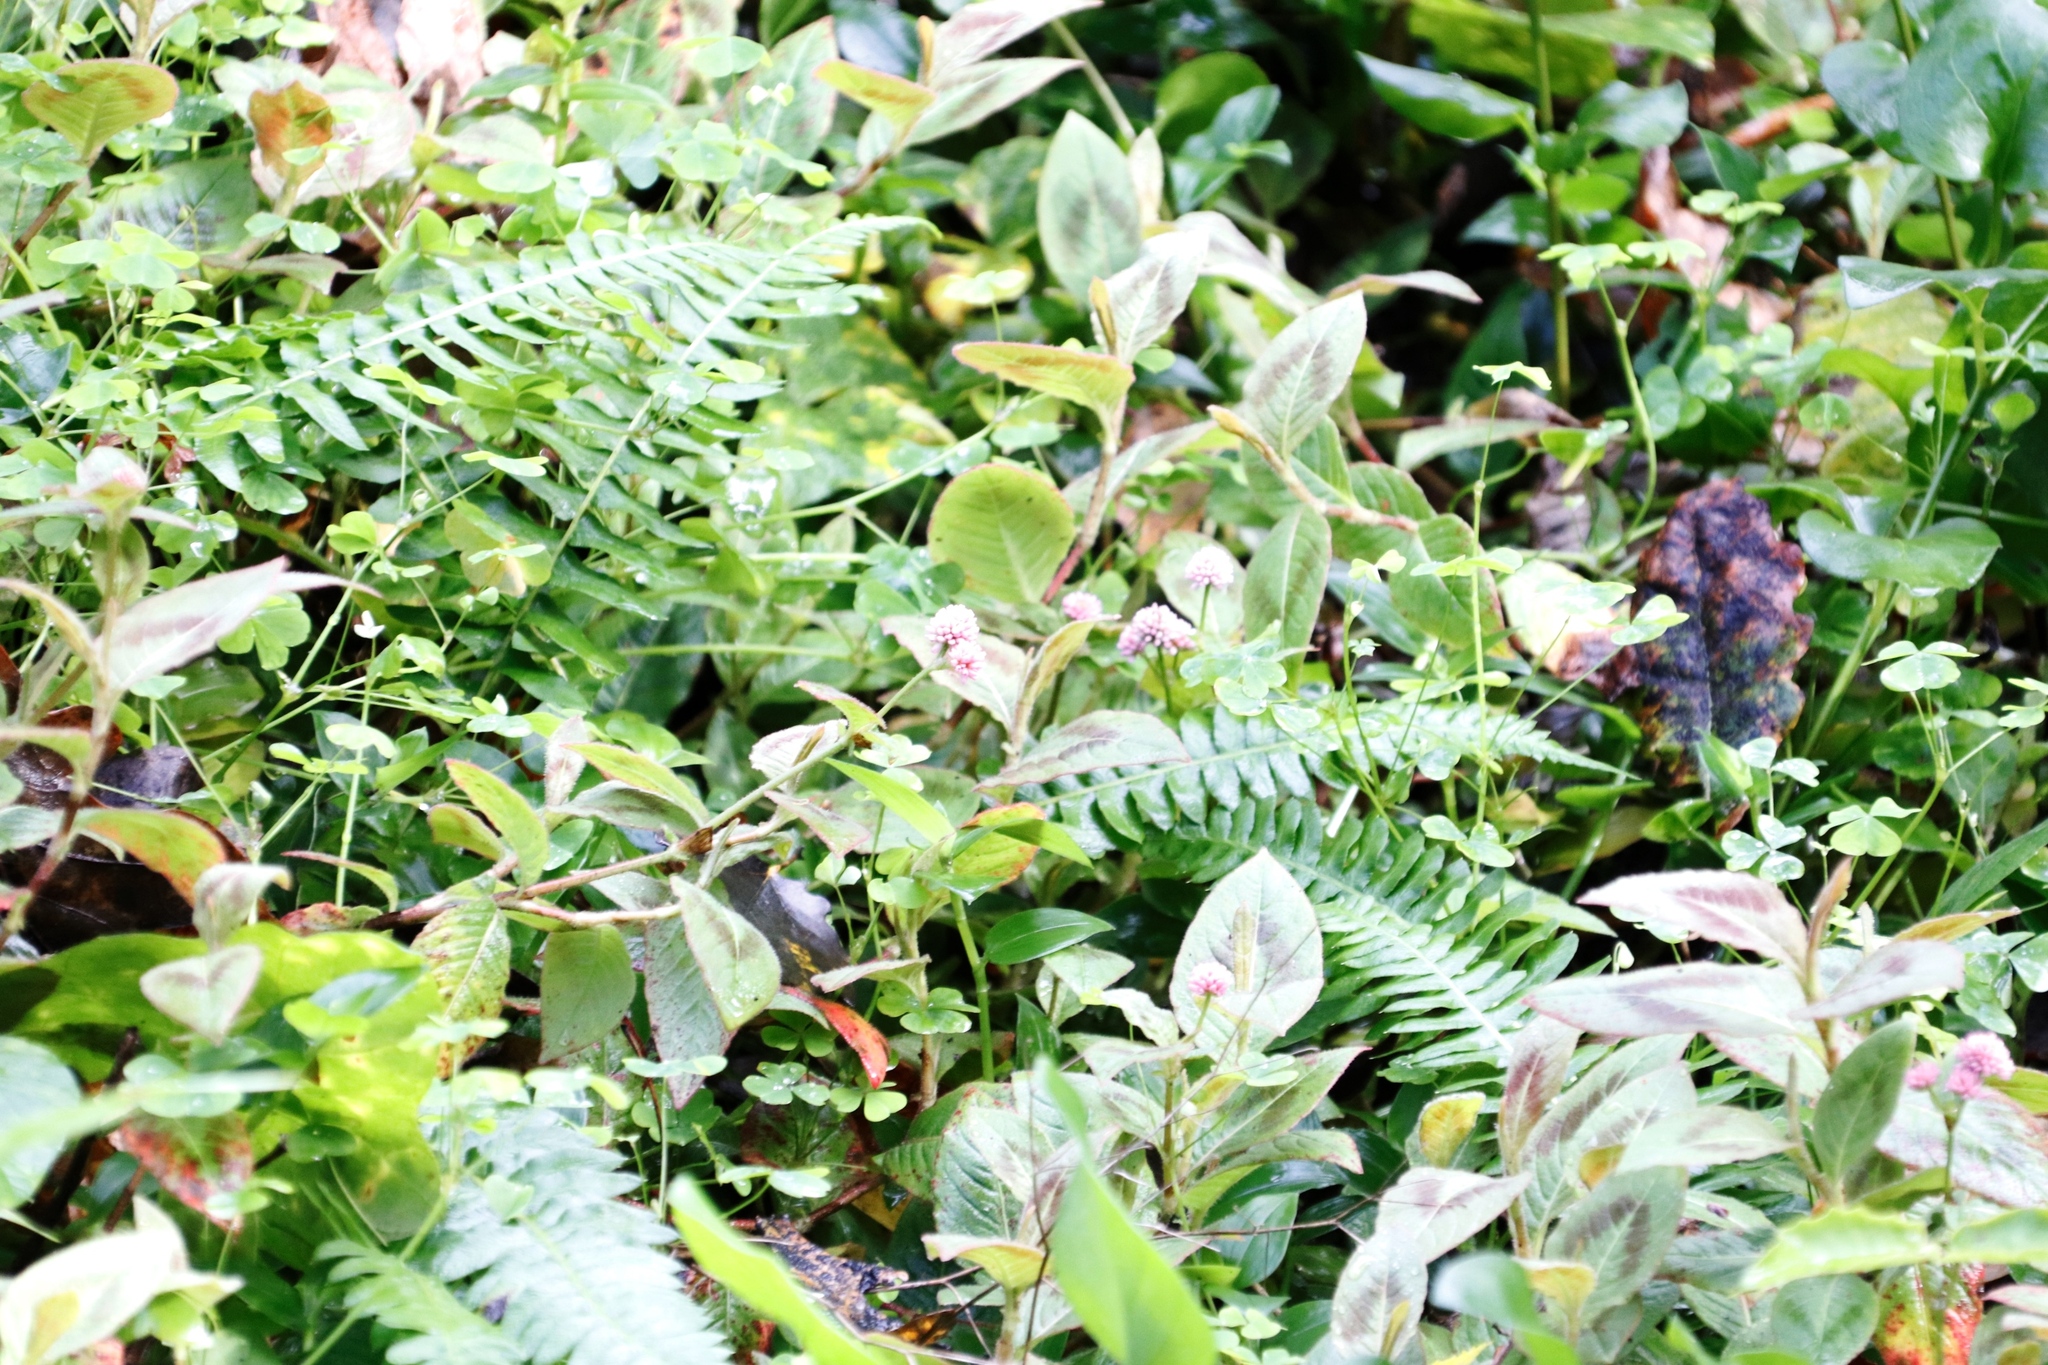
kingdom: Plantae
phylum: Tracheophyta
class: Magnoliopsida
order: Caryophyllales
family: Polygonaceae
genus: Persicaria
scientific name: Persicaria capitata
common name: Pinkhead smartweed
